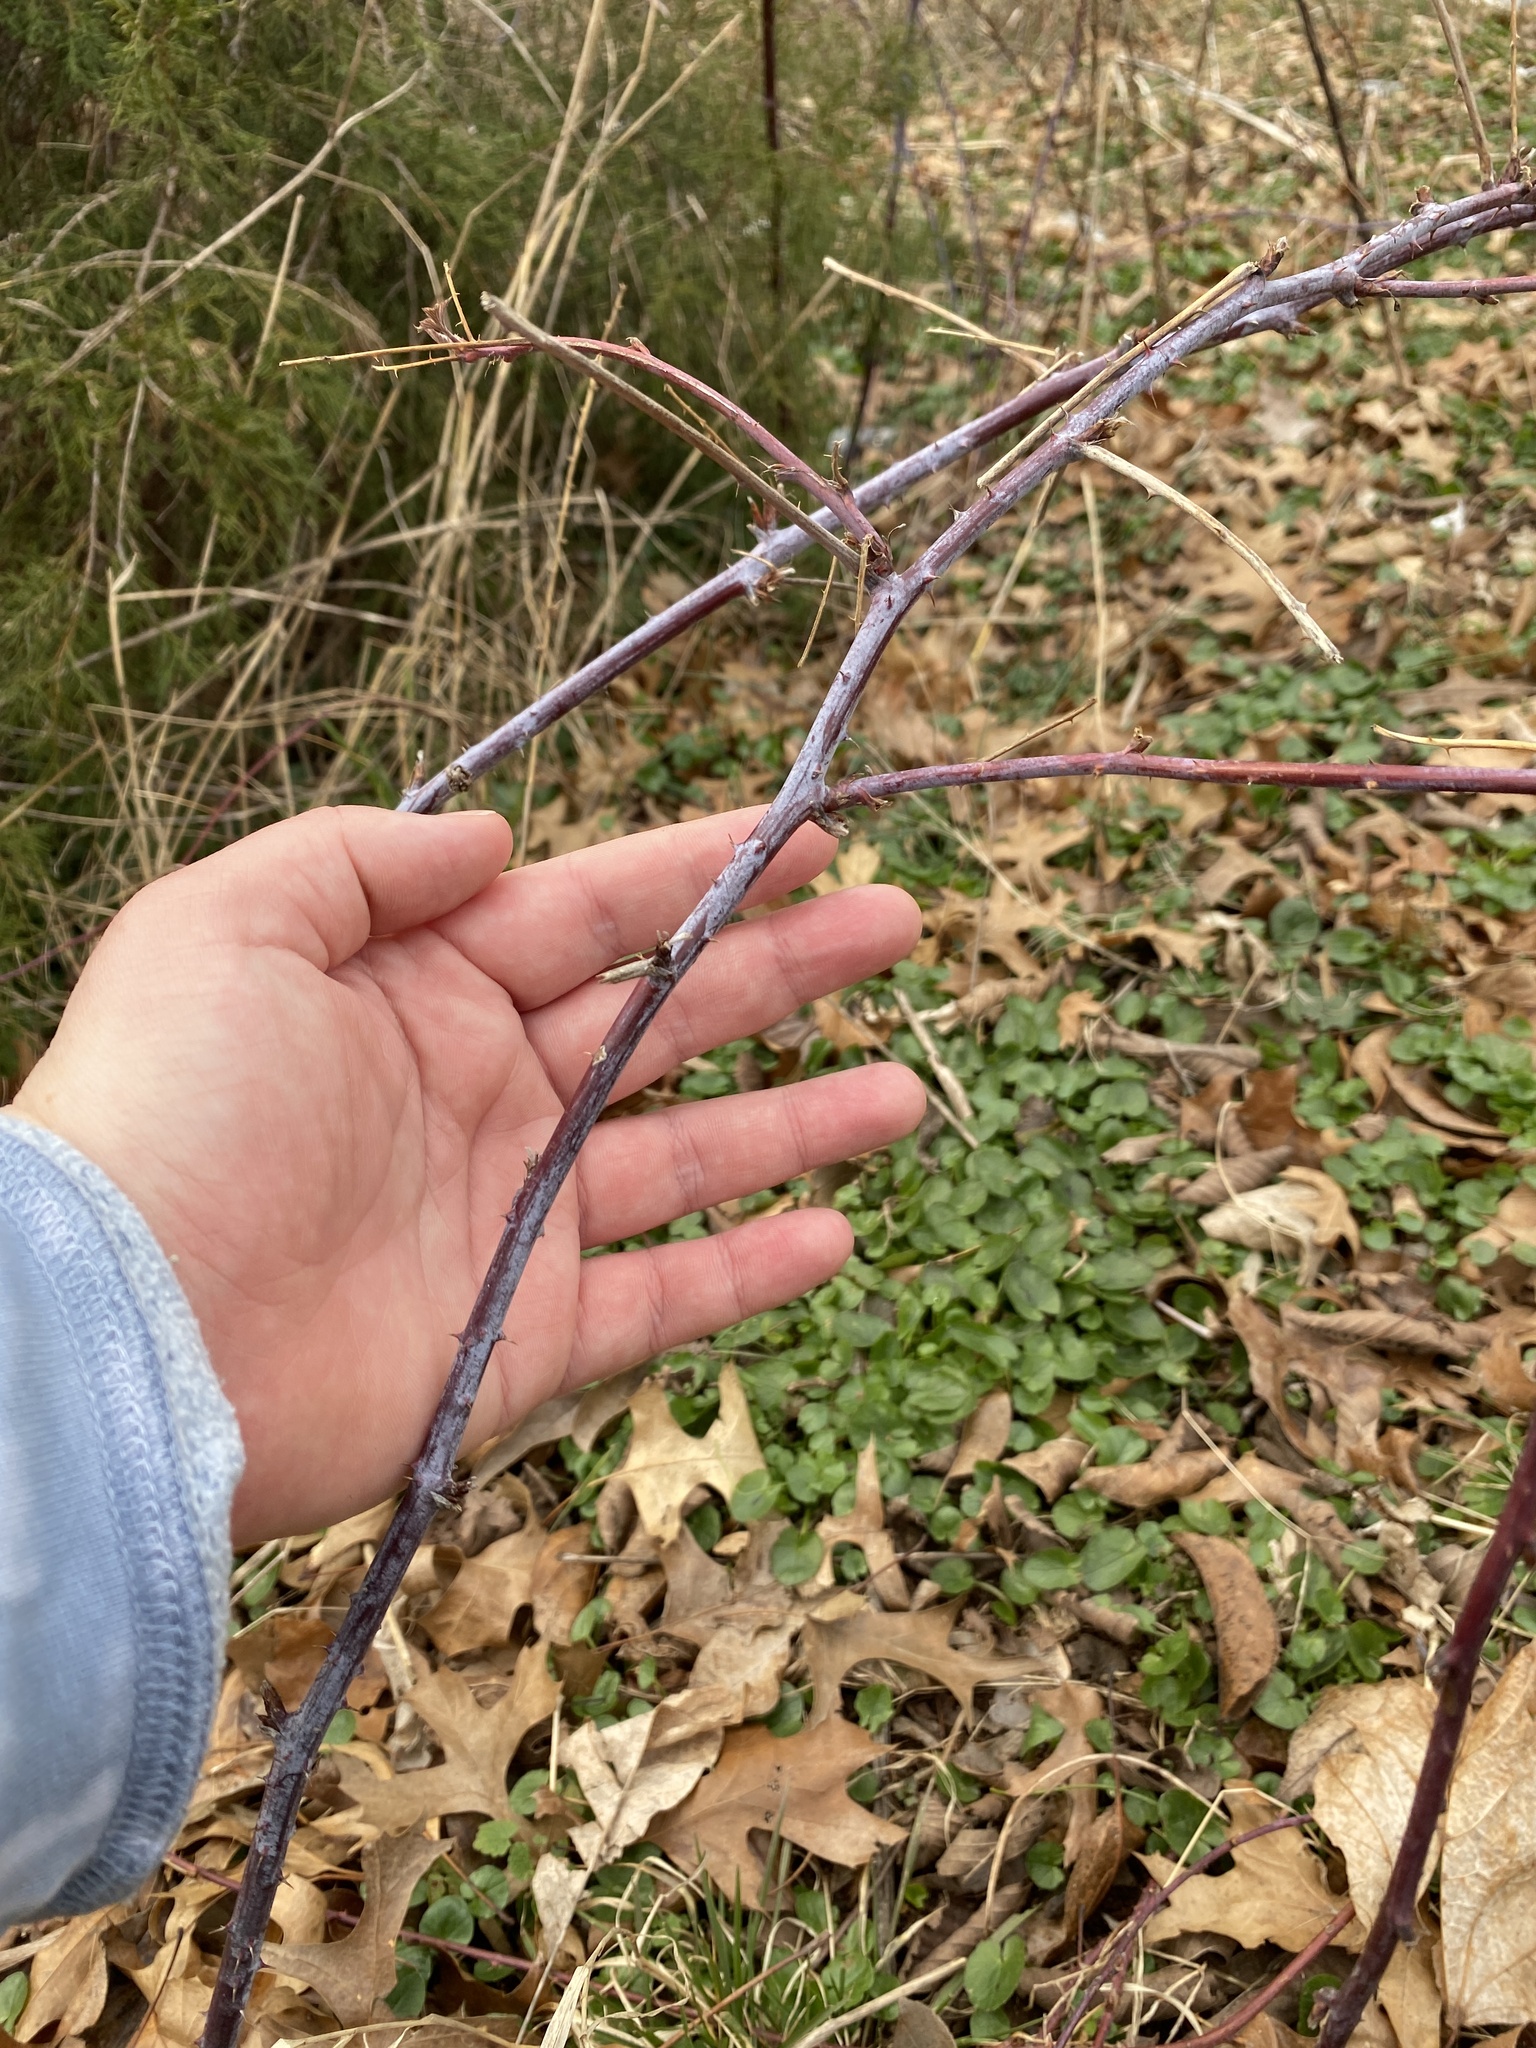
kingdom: Plantae
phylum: Tracheophyta
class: Magnoliopsida
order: Rosales
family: Rosaceae
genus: Rubus
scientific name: Rubus occidentalis
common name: Black raspberry
